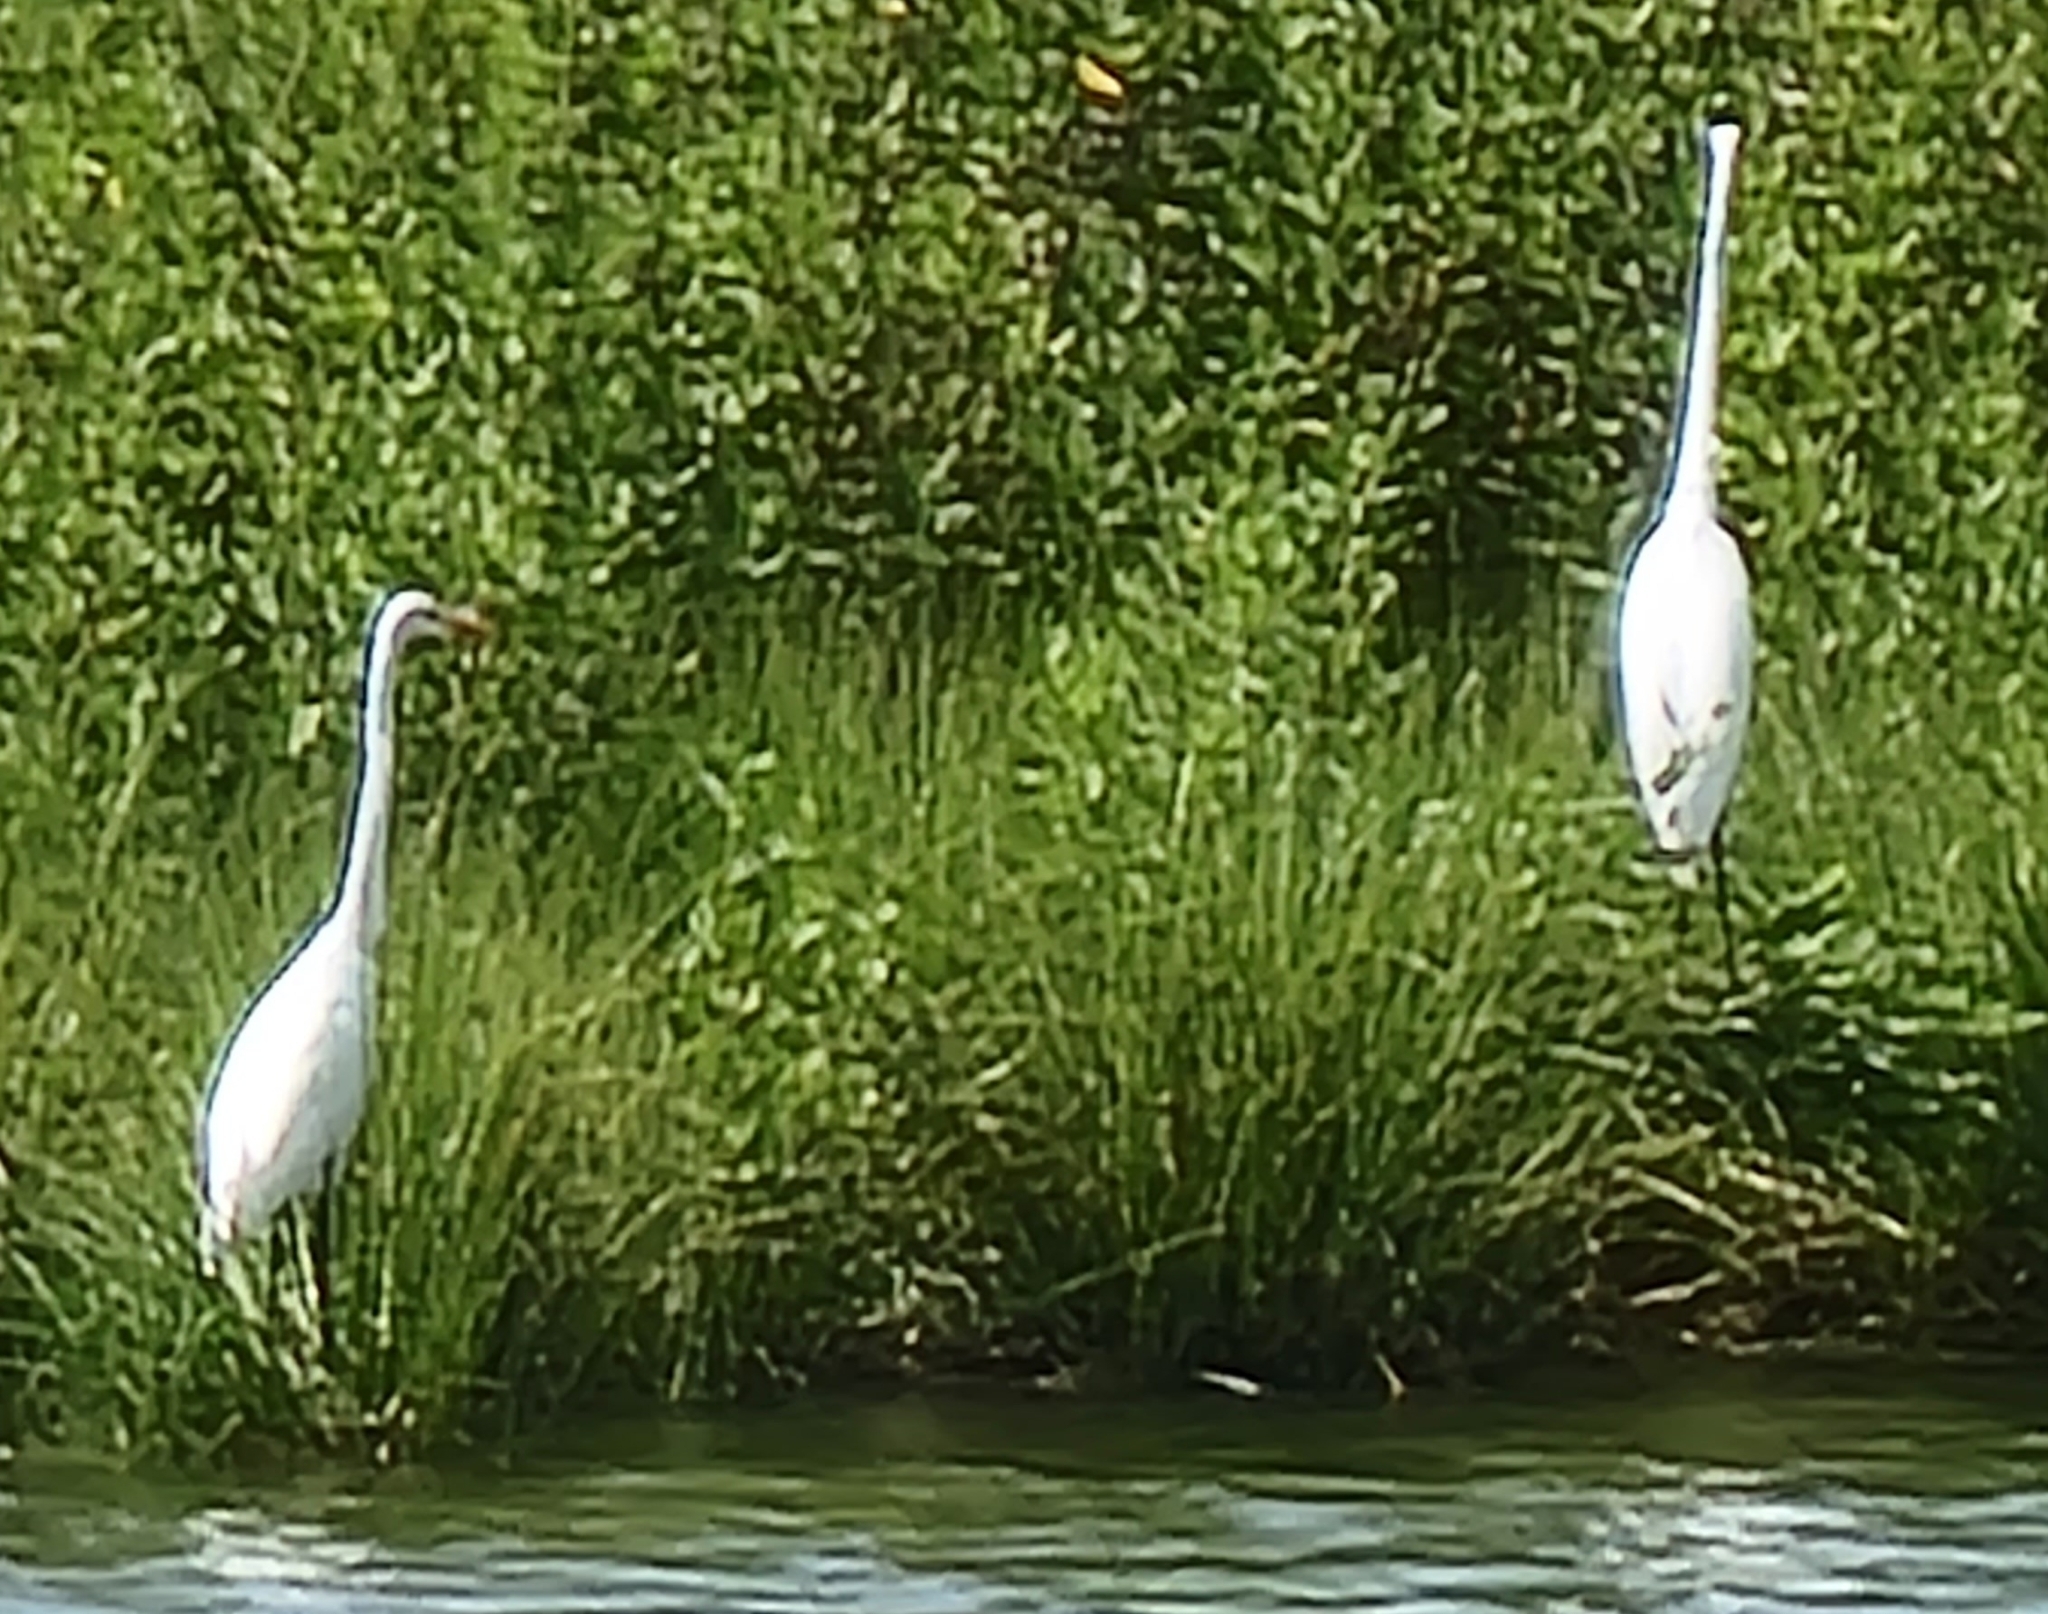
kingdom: Animalia
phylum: Chordata
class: Aves
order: Pelecaniformes
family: Ardeidae
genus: Ardea
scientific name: Ardea alba
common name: Great egret
